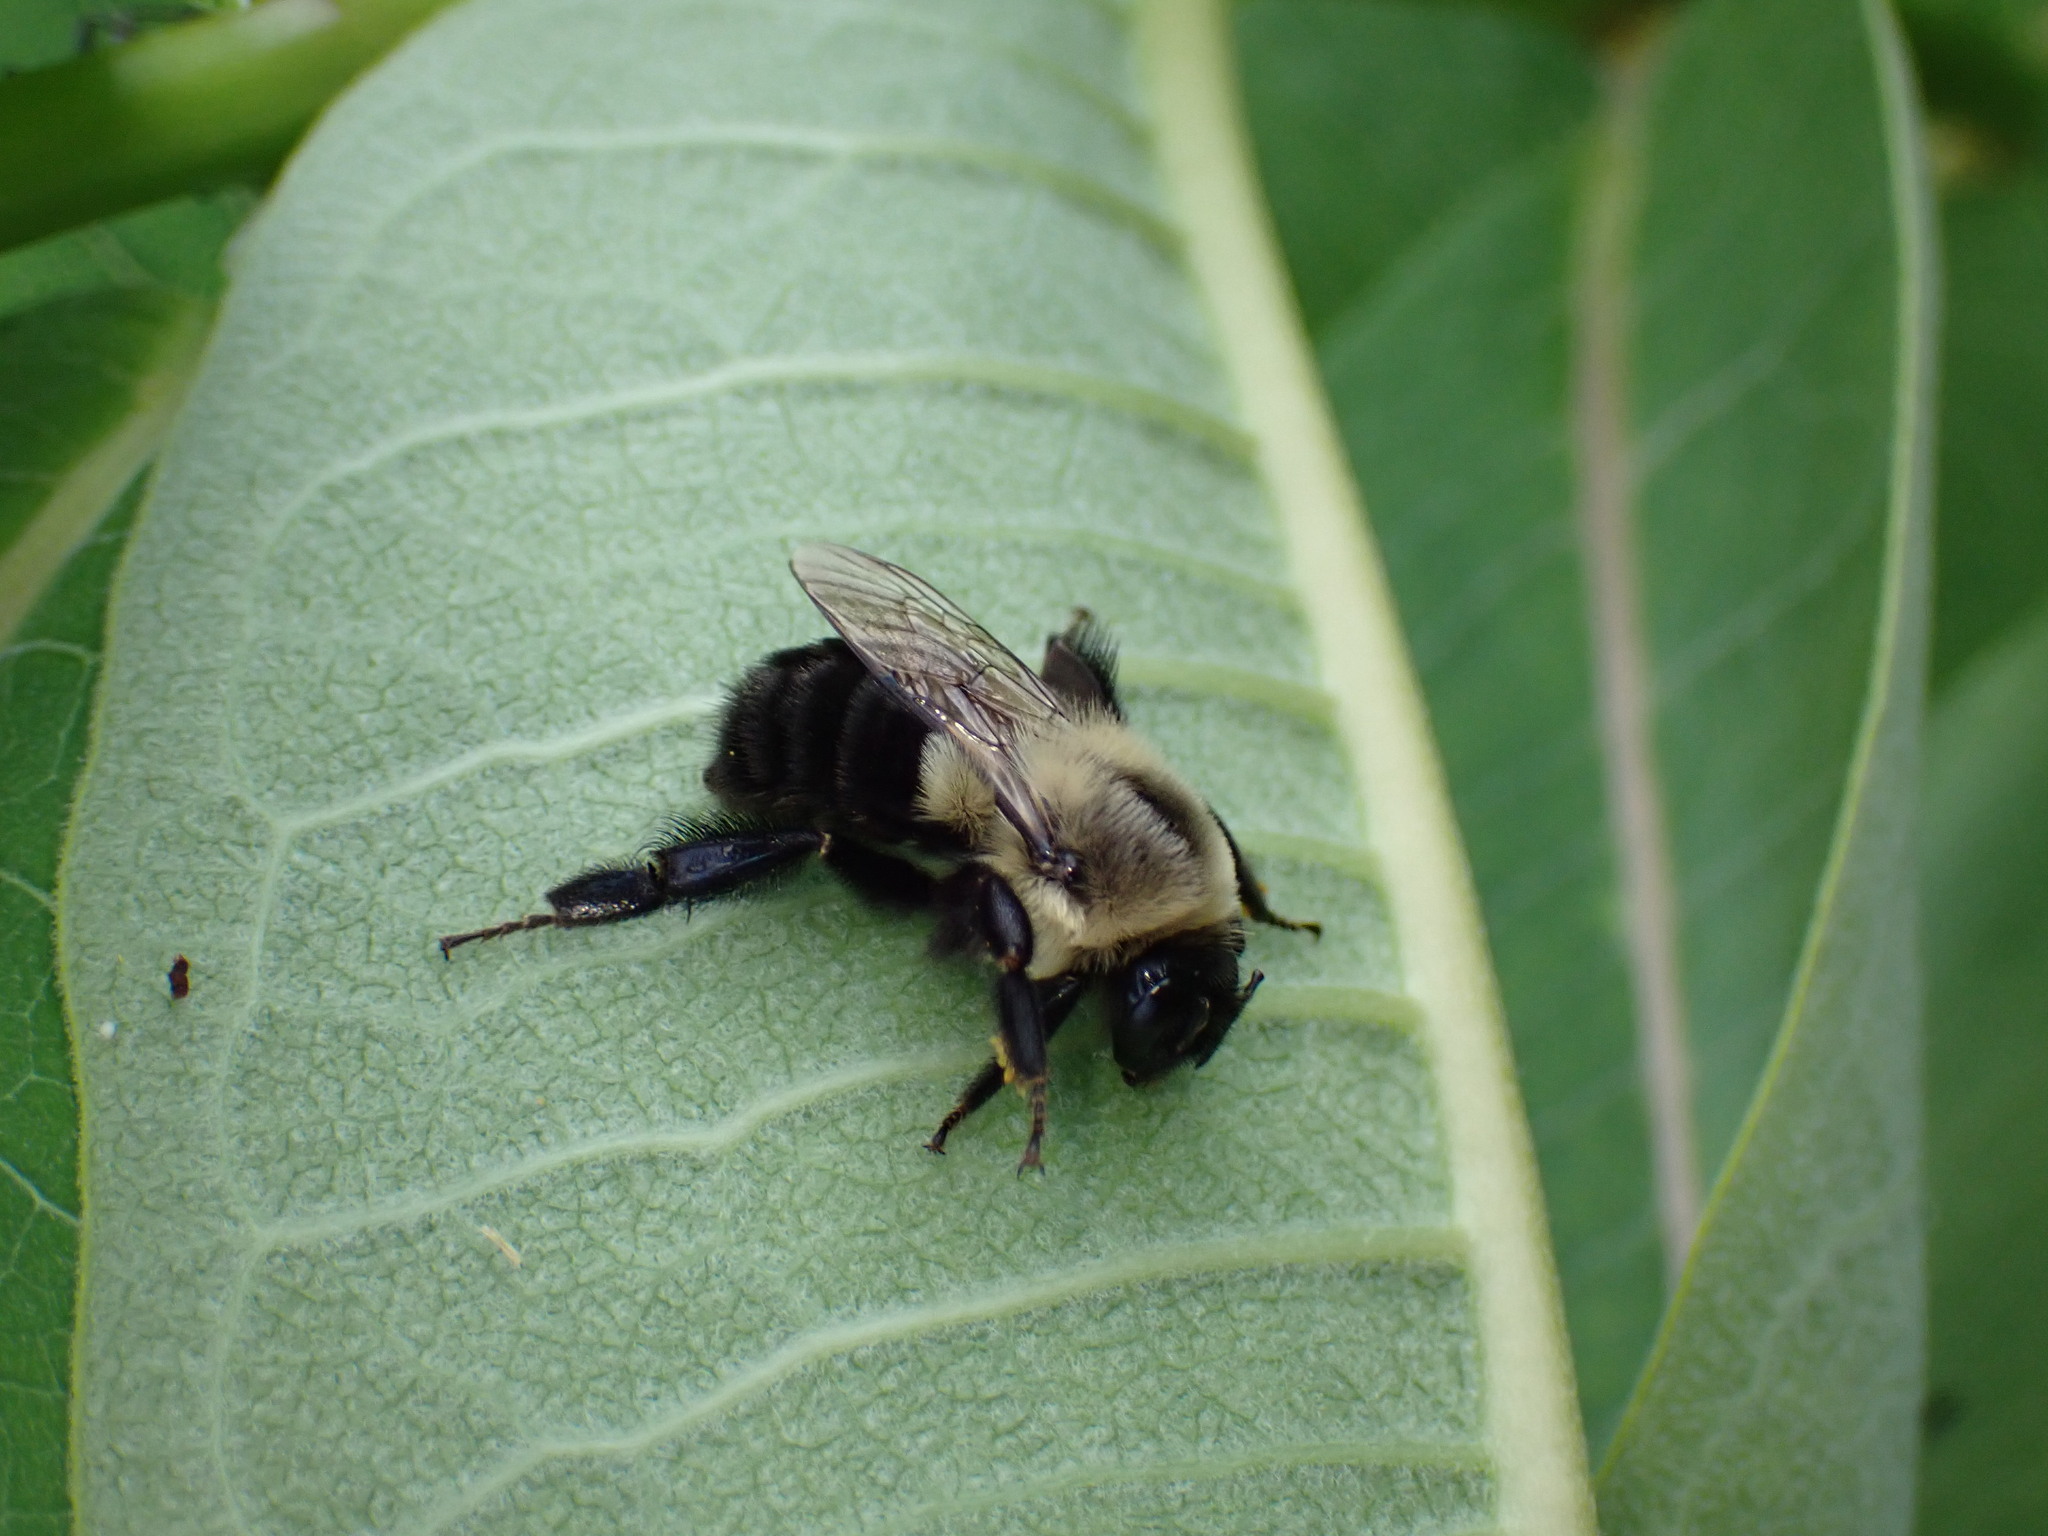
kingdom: Animalia
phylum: Arthropoda
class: Insecta
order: Hymenoptera
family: Apidae
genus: Bombus
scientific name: Bombus impatiens
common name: Common eastern bumble bee
